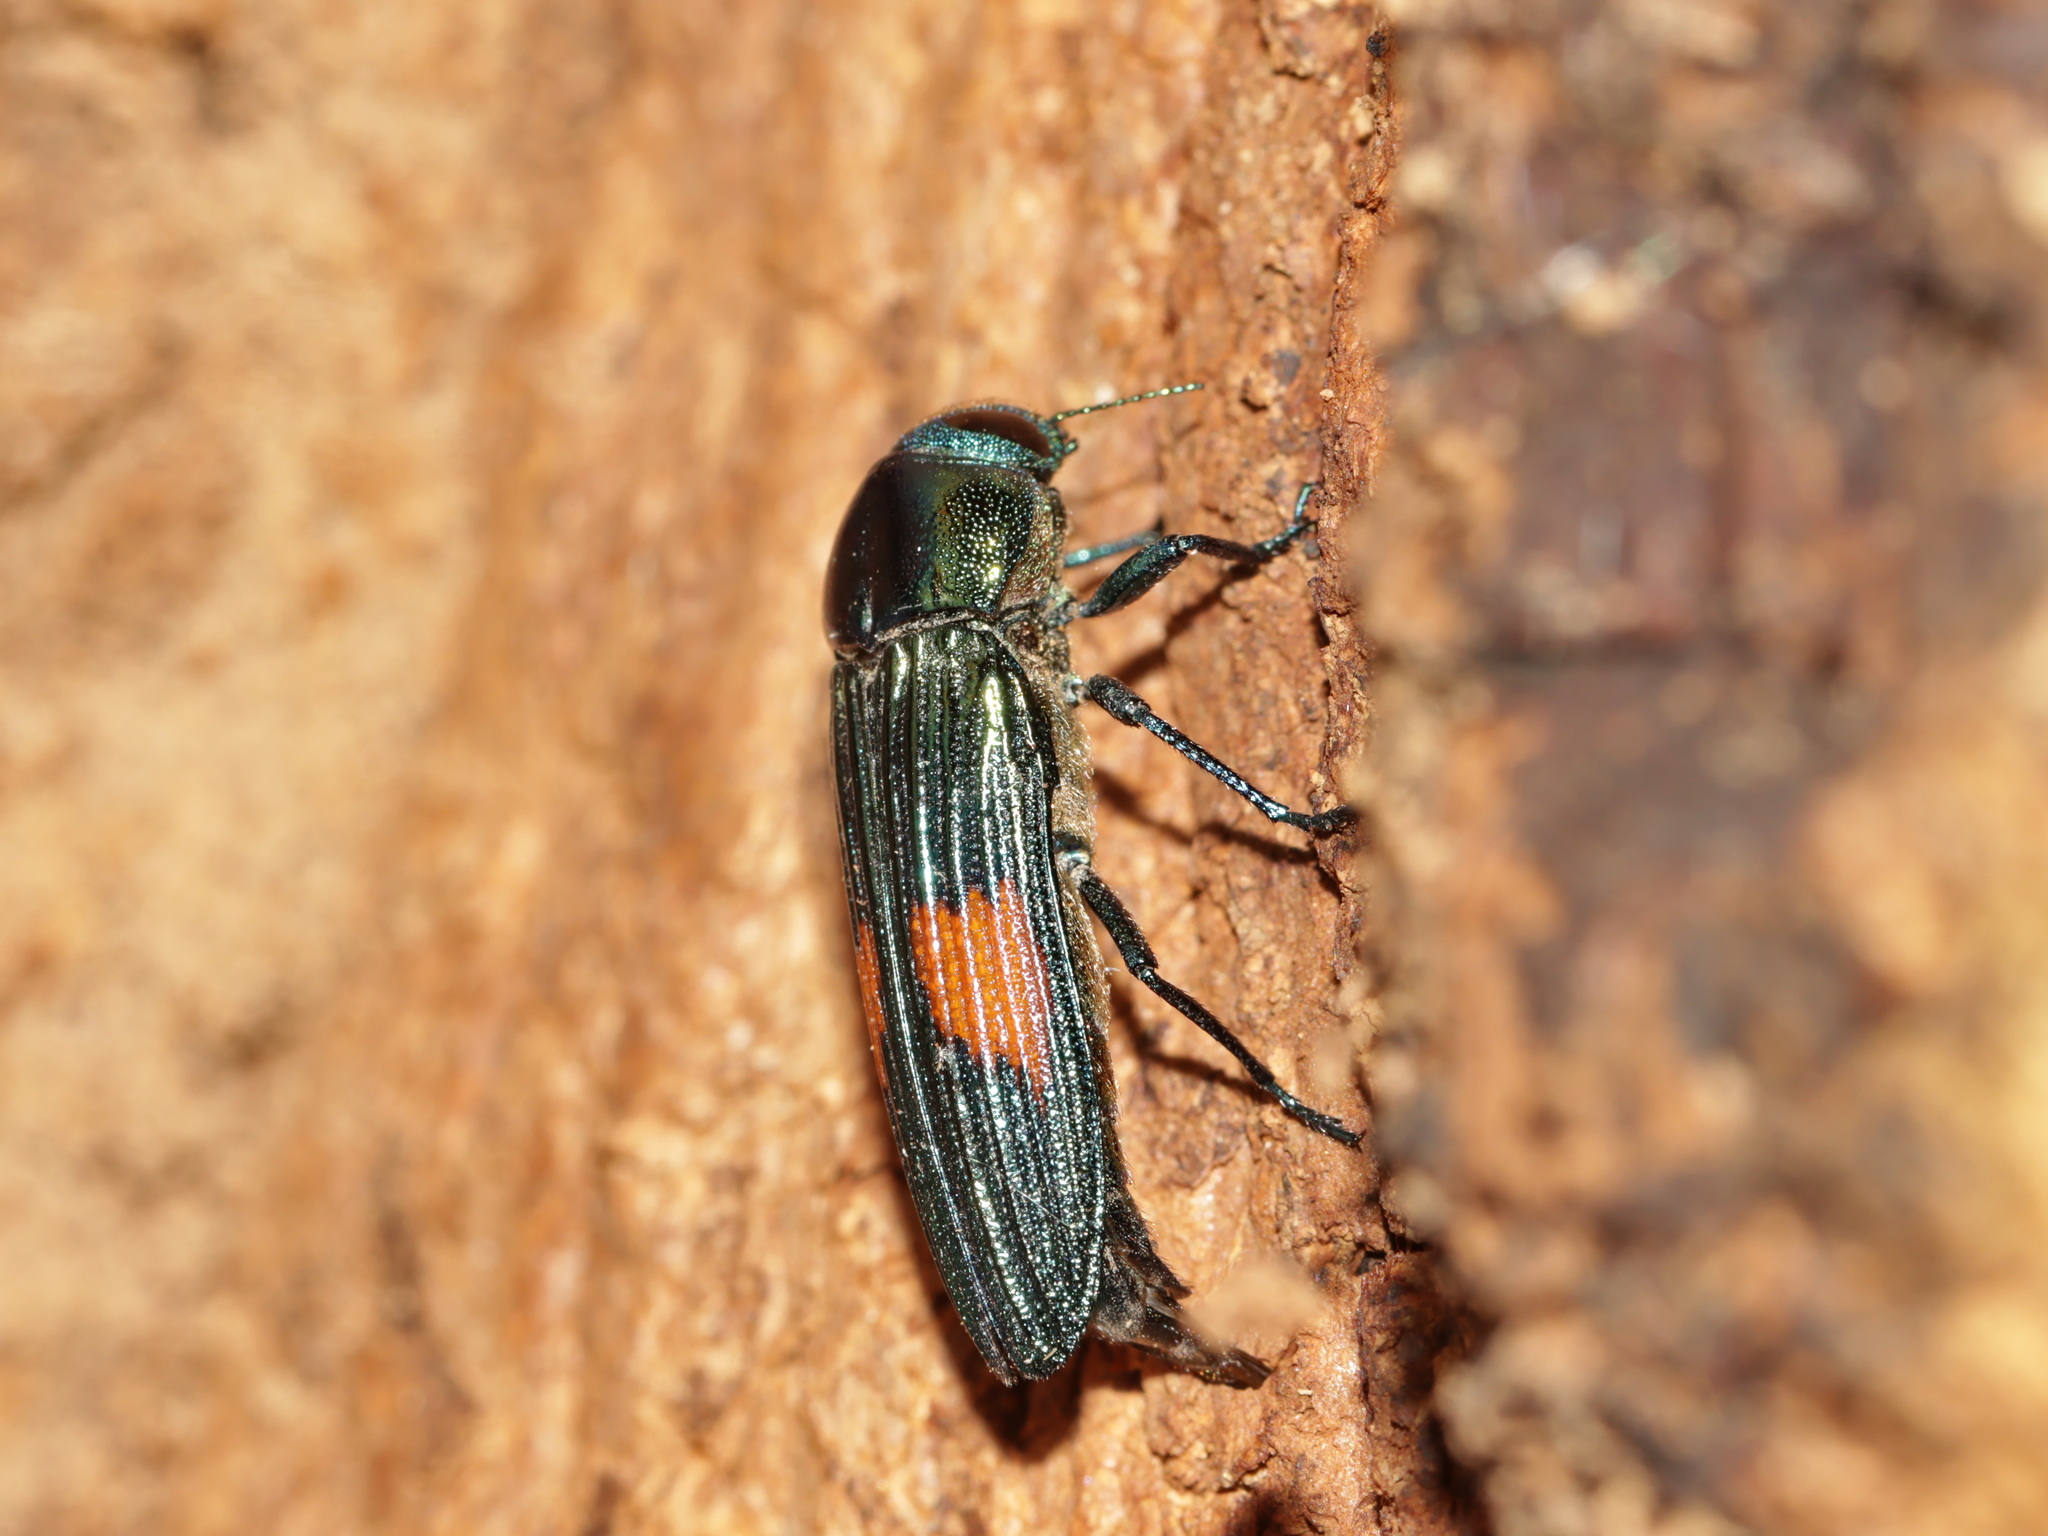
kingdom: Animalia
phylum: Arthropoda
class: Insecta
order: Coleoptera
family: Buprestidae
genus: Strigoptera
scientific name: Strigoptera bimaculata
